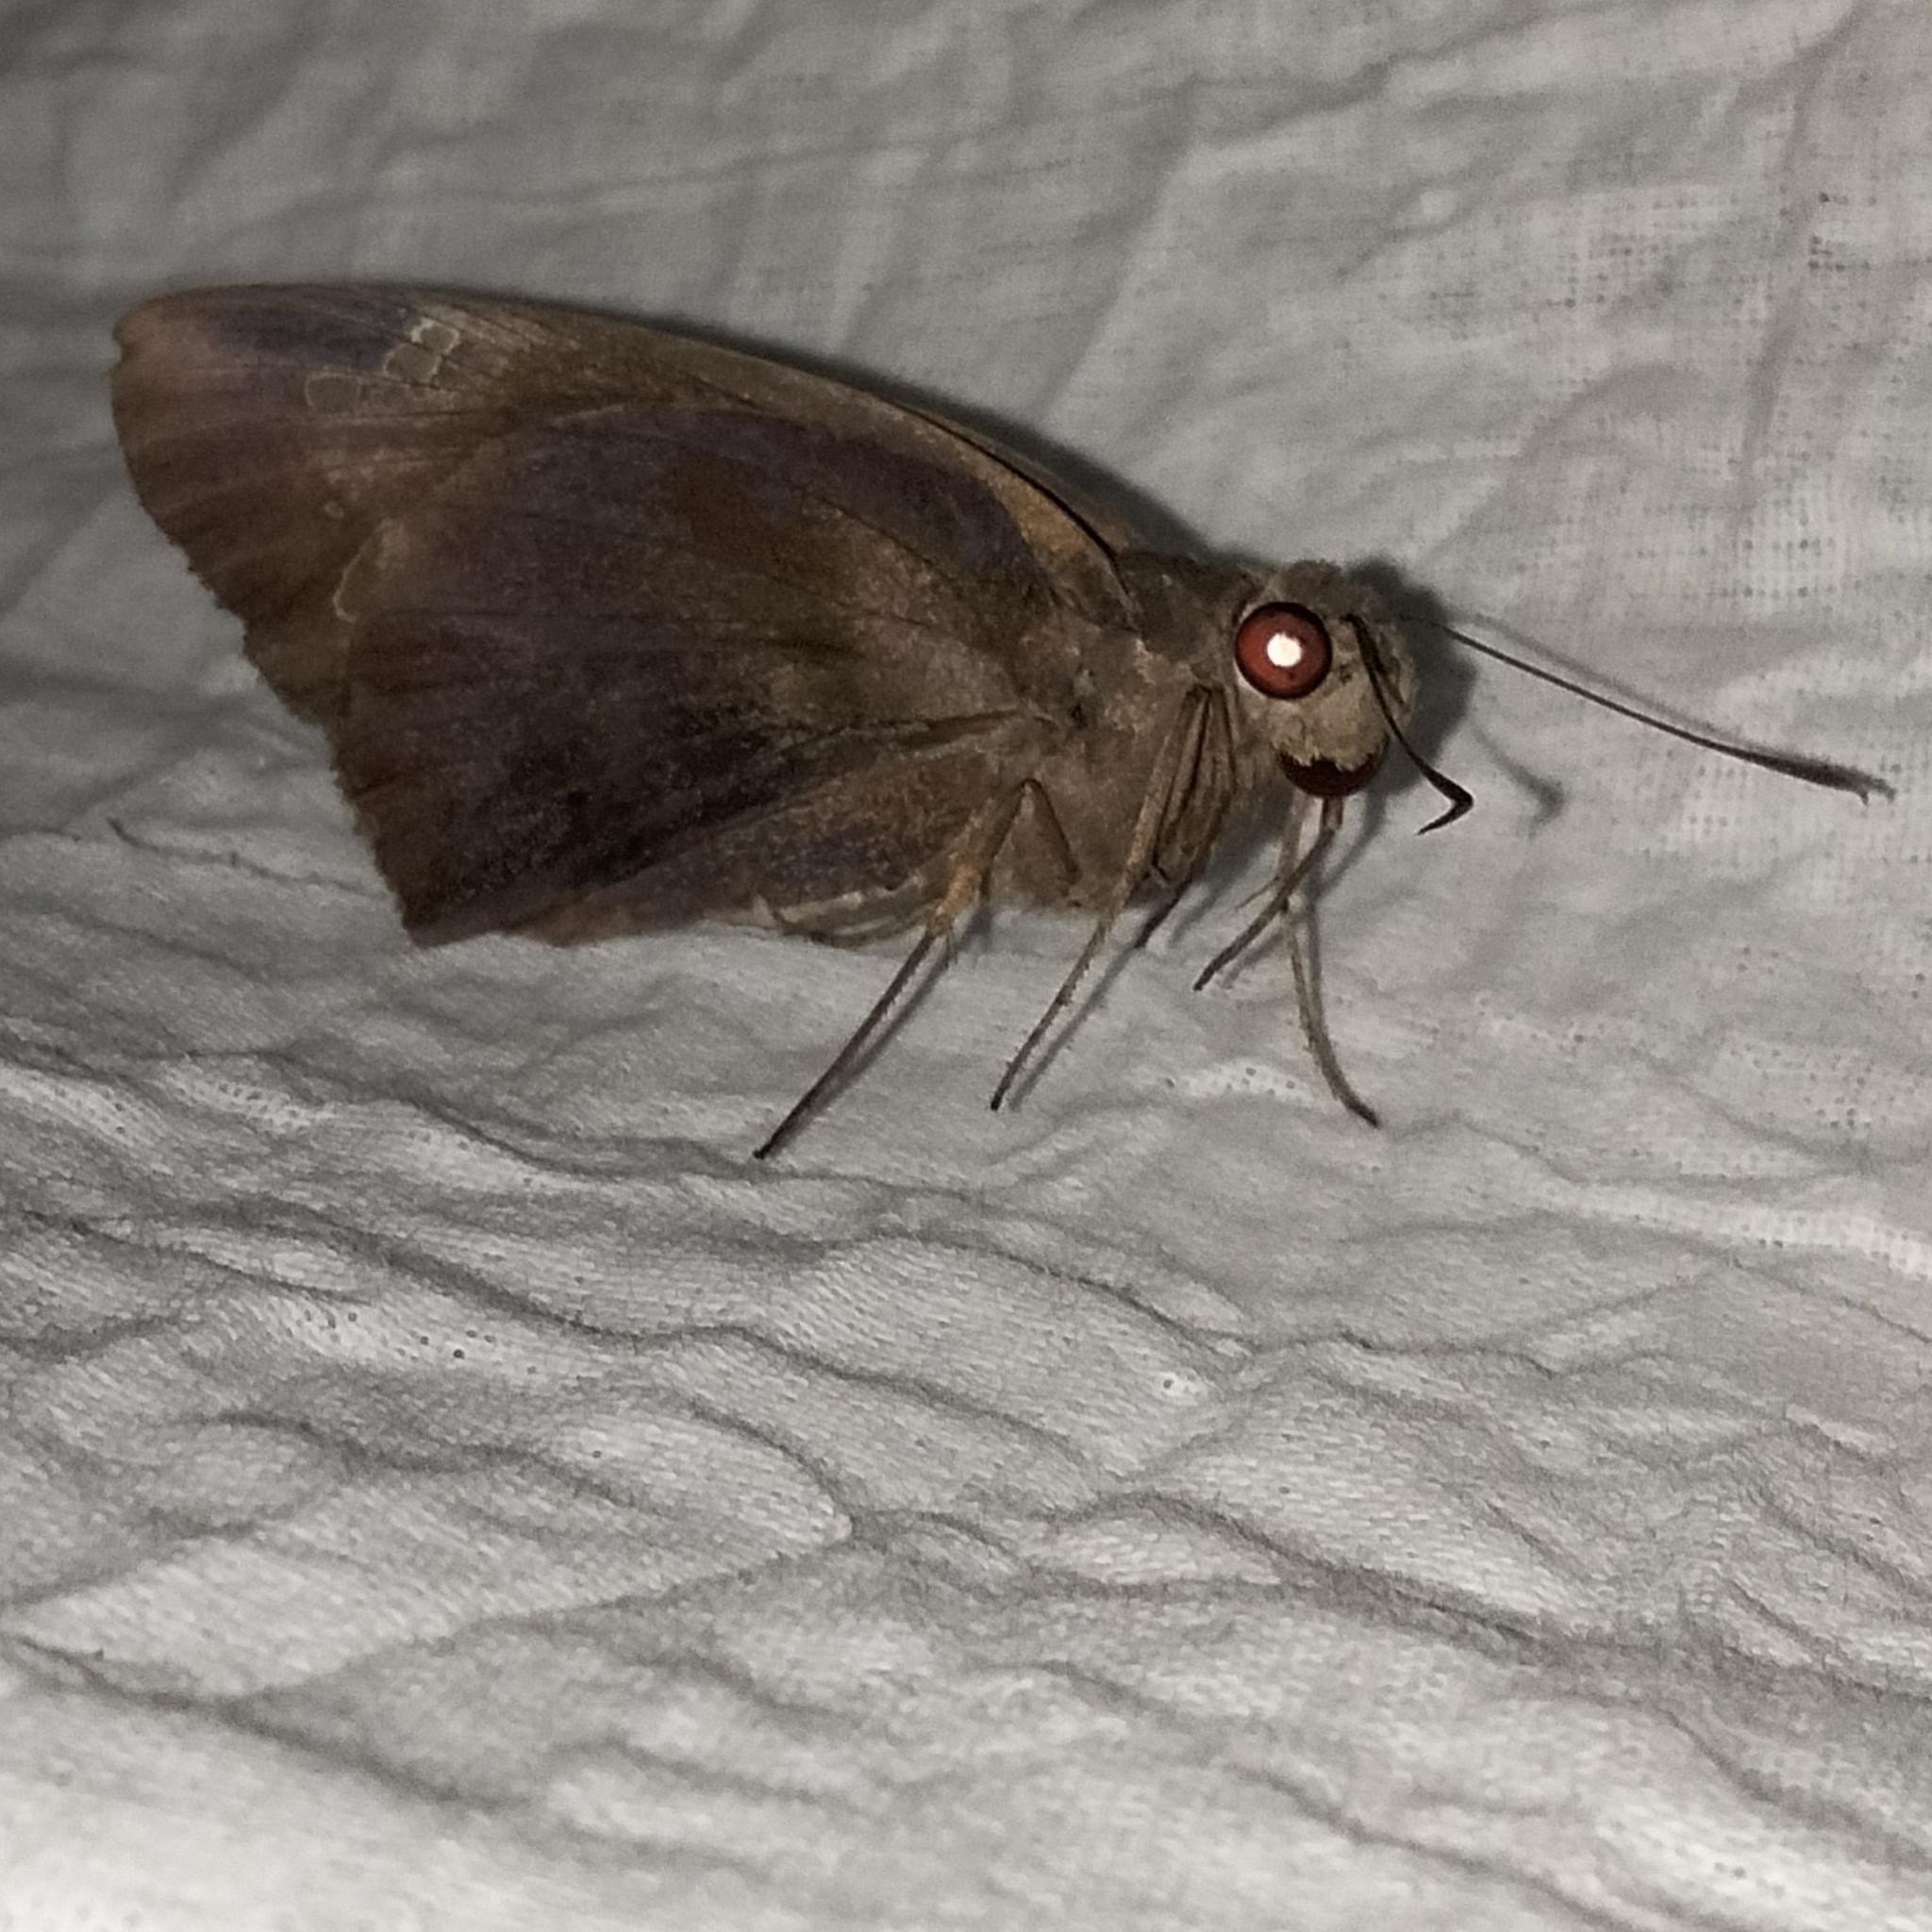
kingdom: Animalia
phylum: Arthropoda
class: Insecta
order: Lepidoptera
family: Hesperiidae
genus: Gangara
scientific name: Gangara thyrsis
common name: Giant redeye
